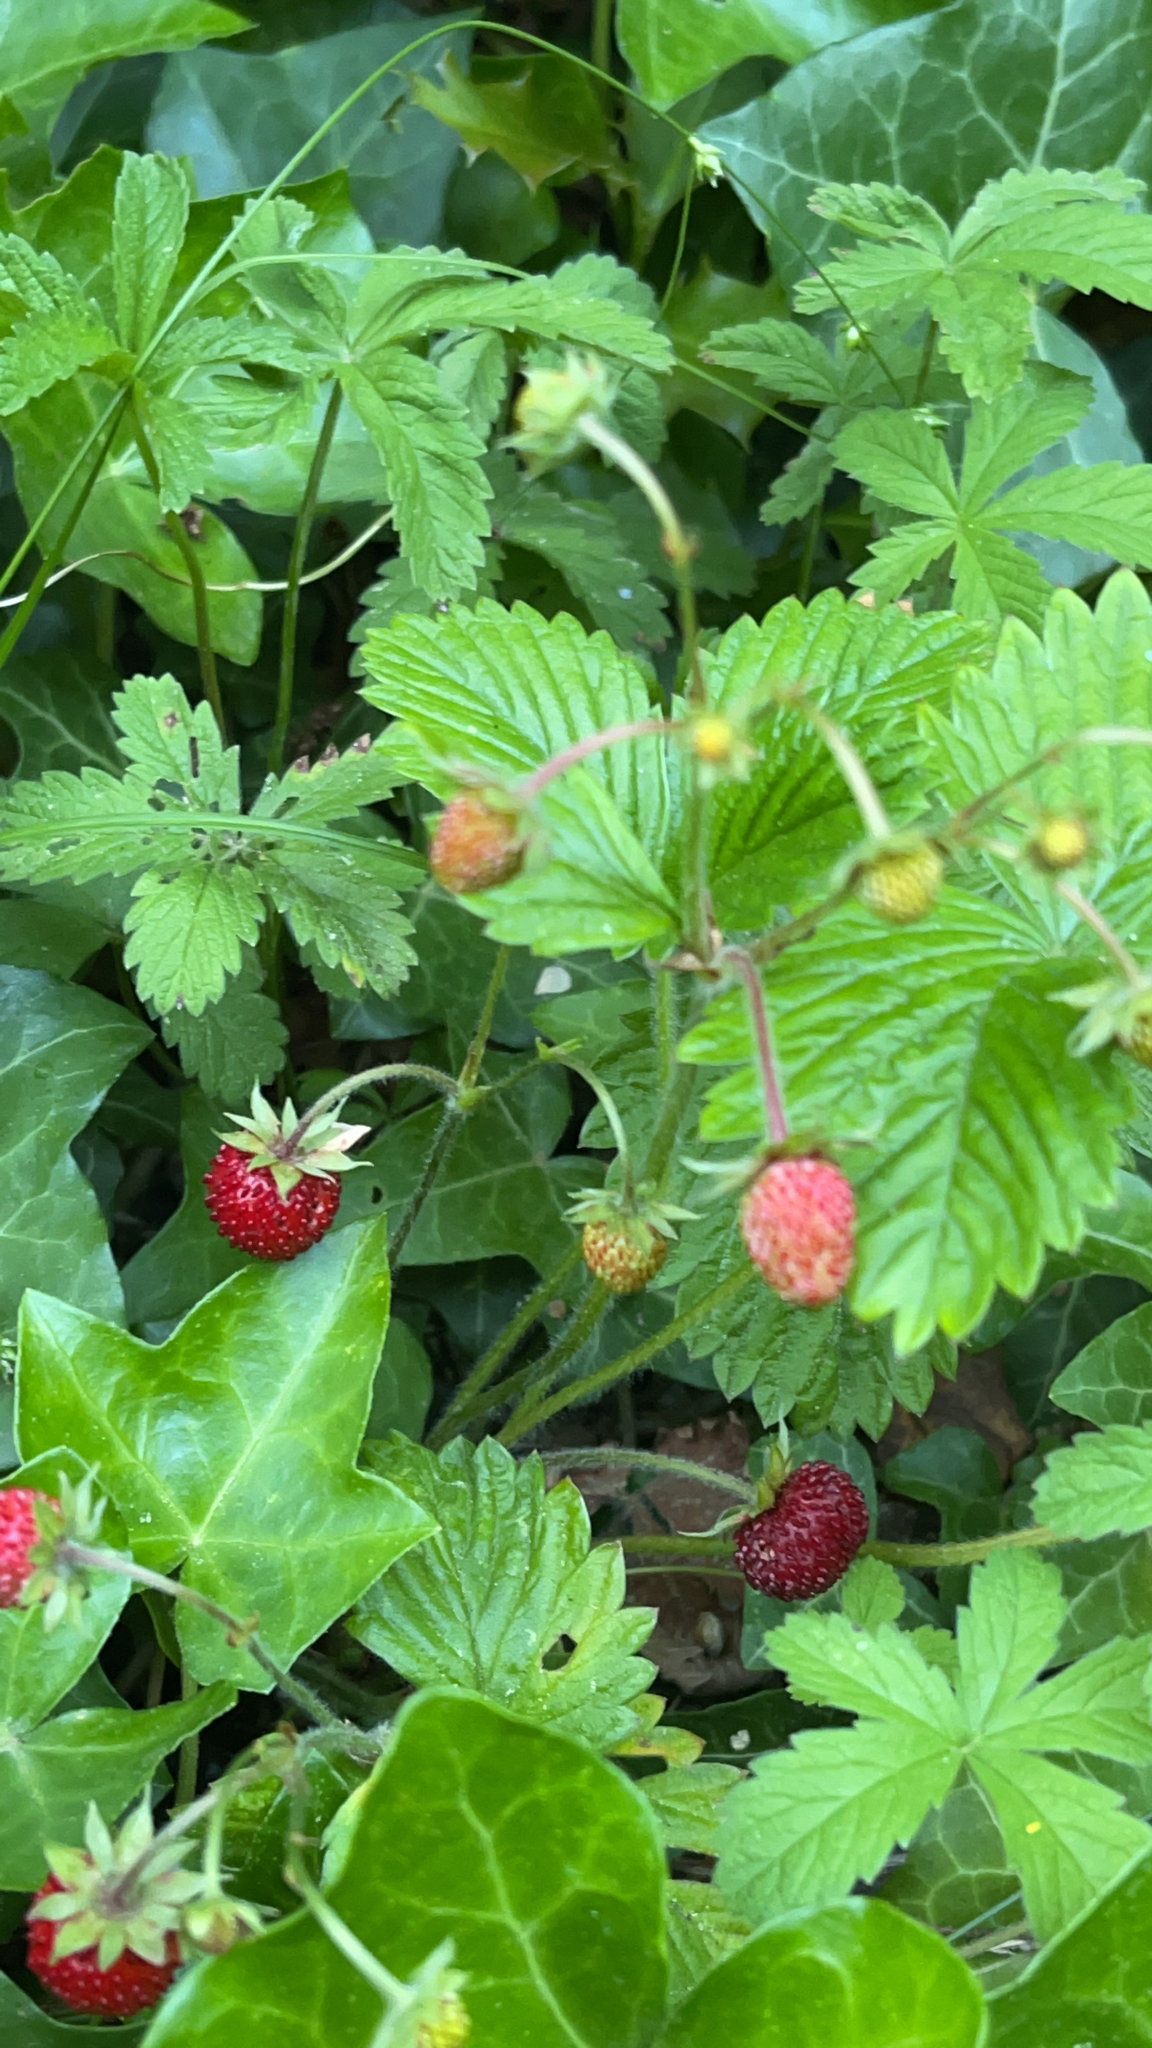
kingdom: Plantae
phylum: Tracheophyta
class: Magnoliopsida
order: Rosales
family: Rosaceae
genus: Fragaria
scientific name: Fragaria vesca
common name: Wild strawberry
